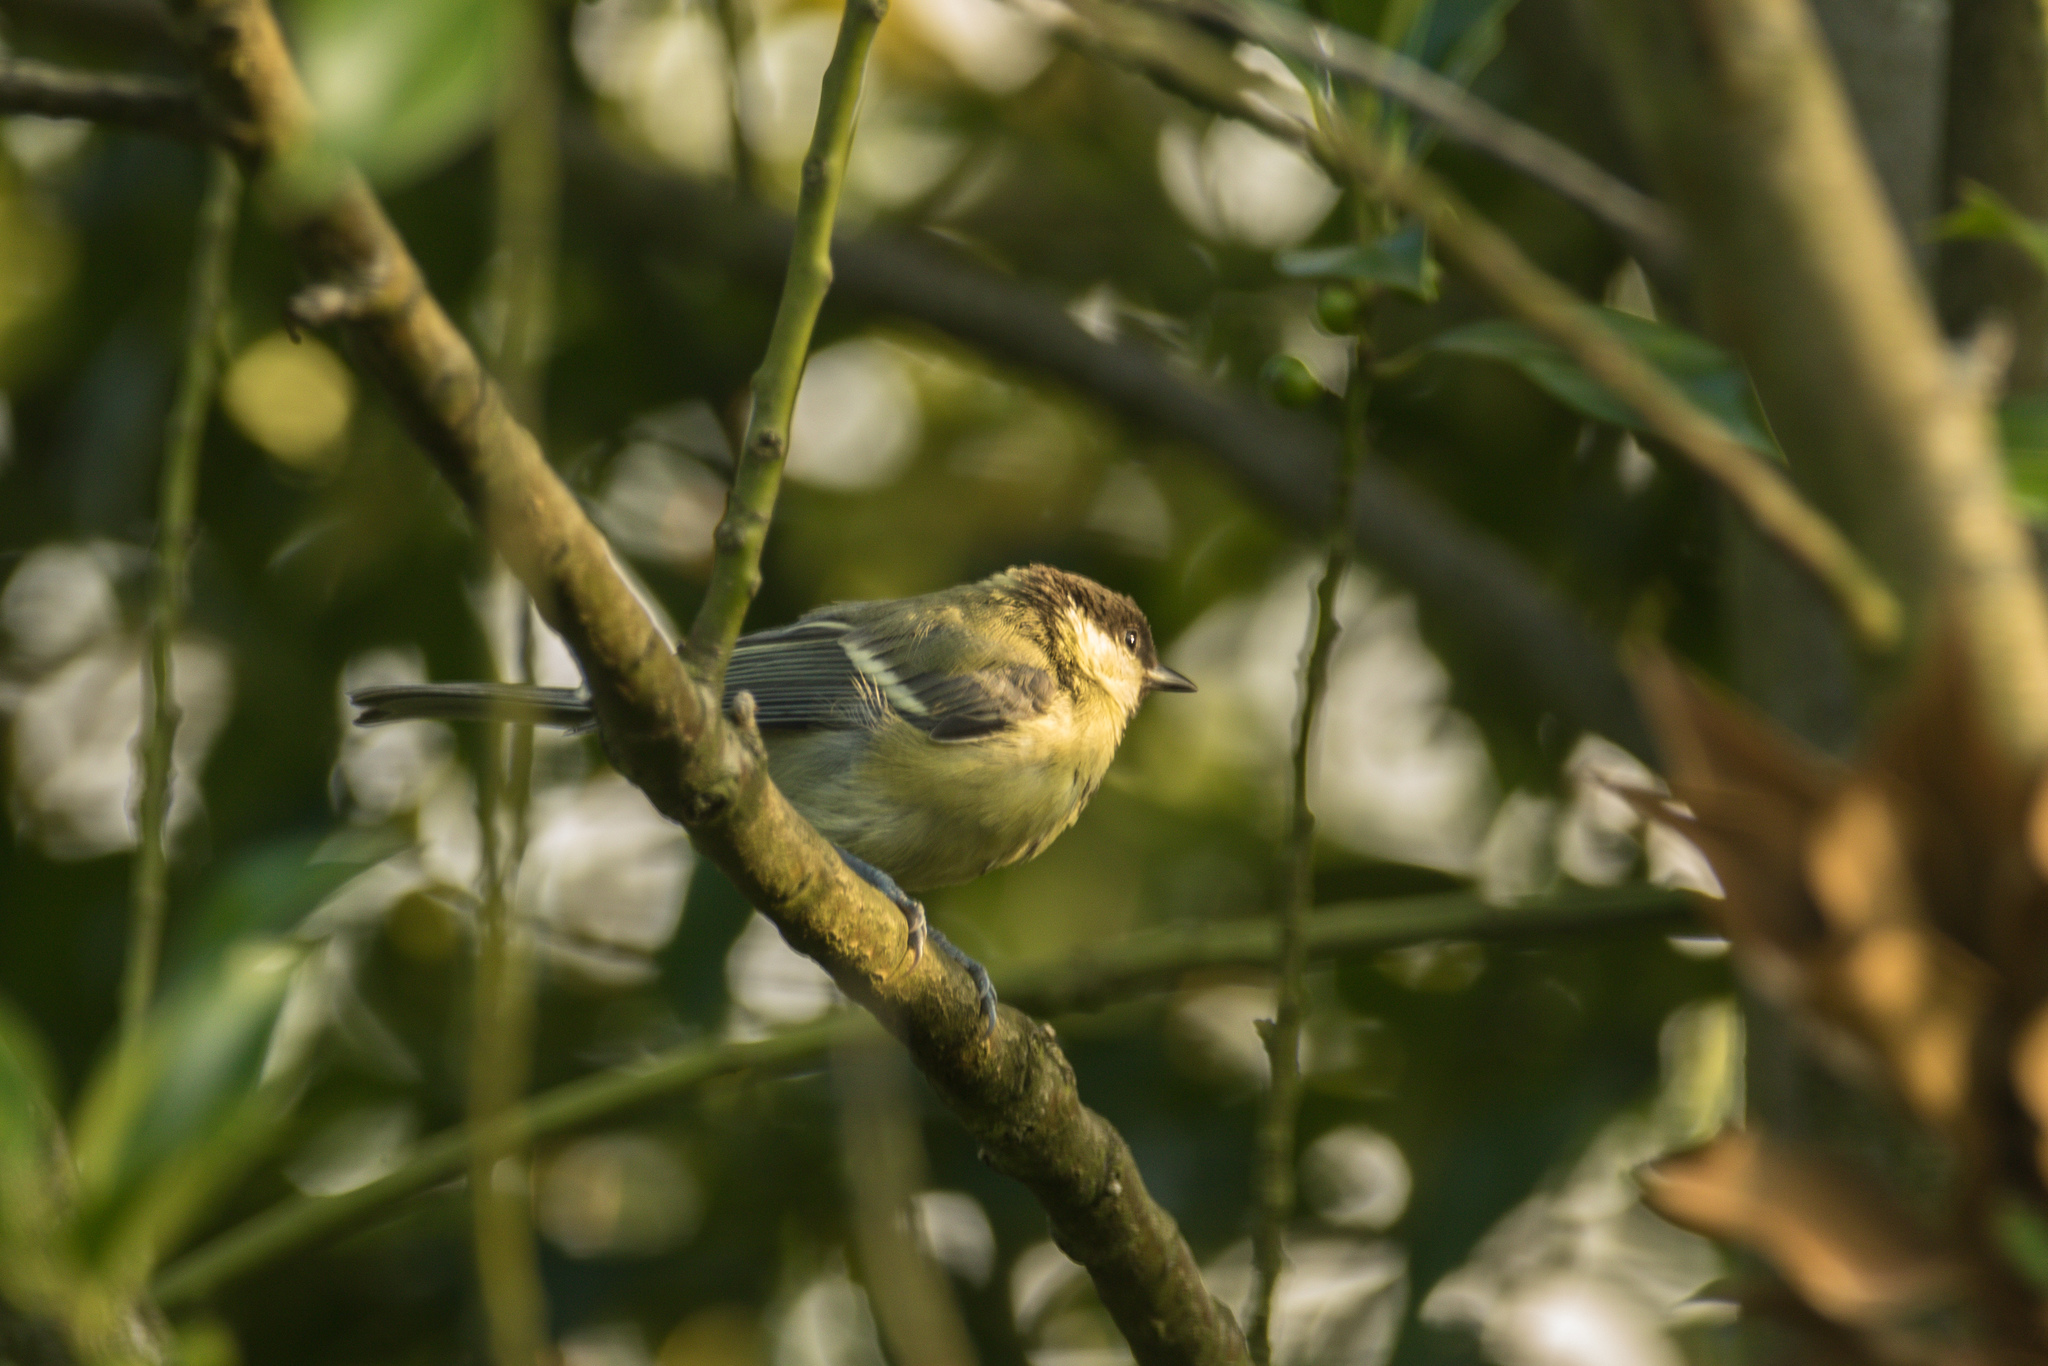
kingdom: Animalia
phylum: Chordata
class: Aves
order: Passeriformes
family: Paridae
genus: Parus
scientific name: Parus major
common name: Great tit
